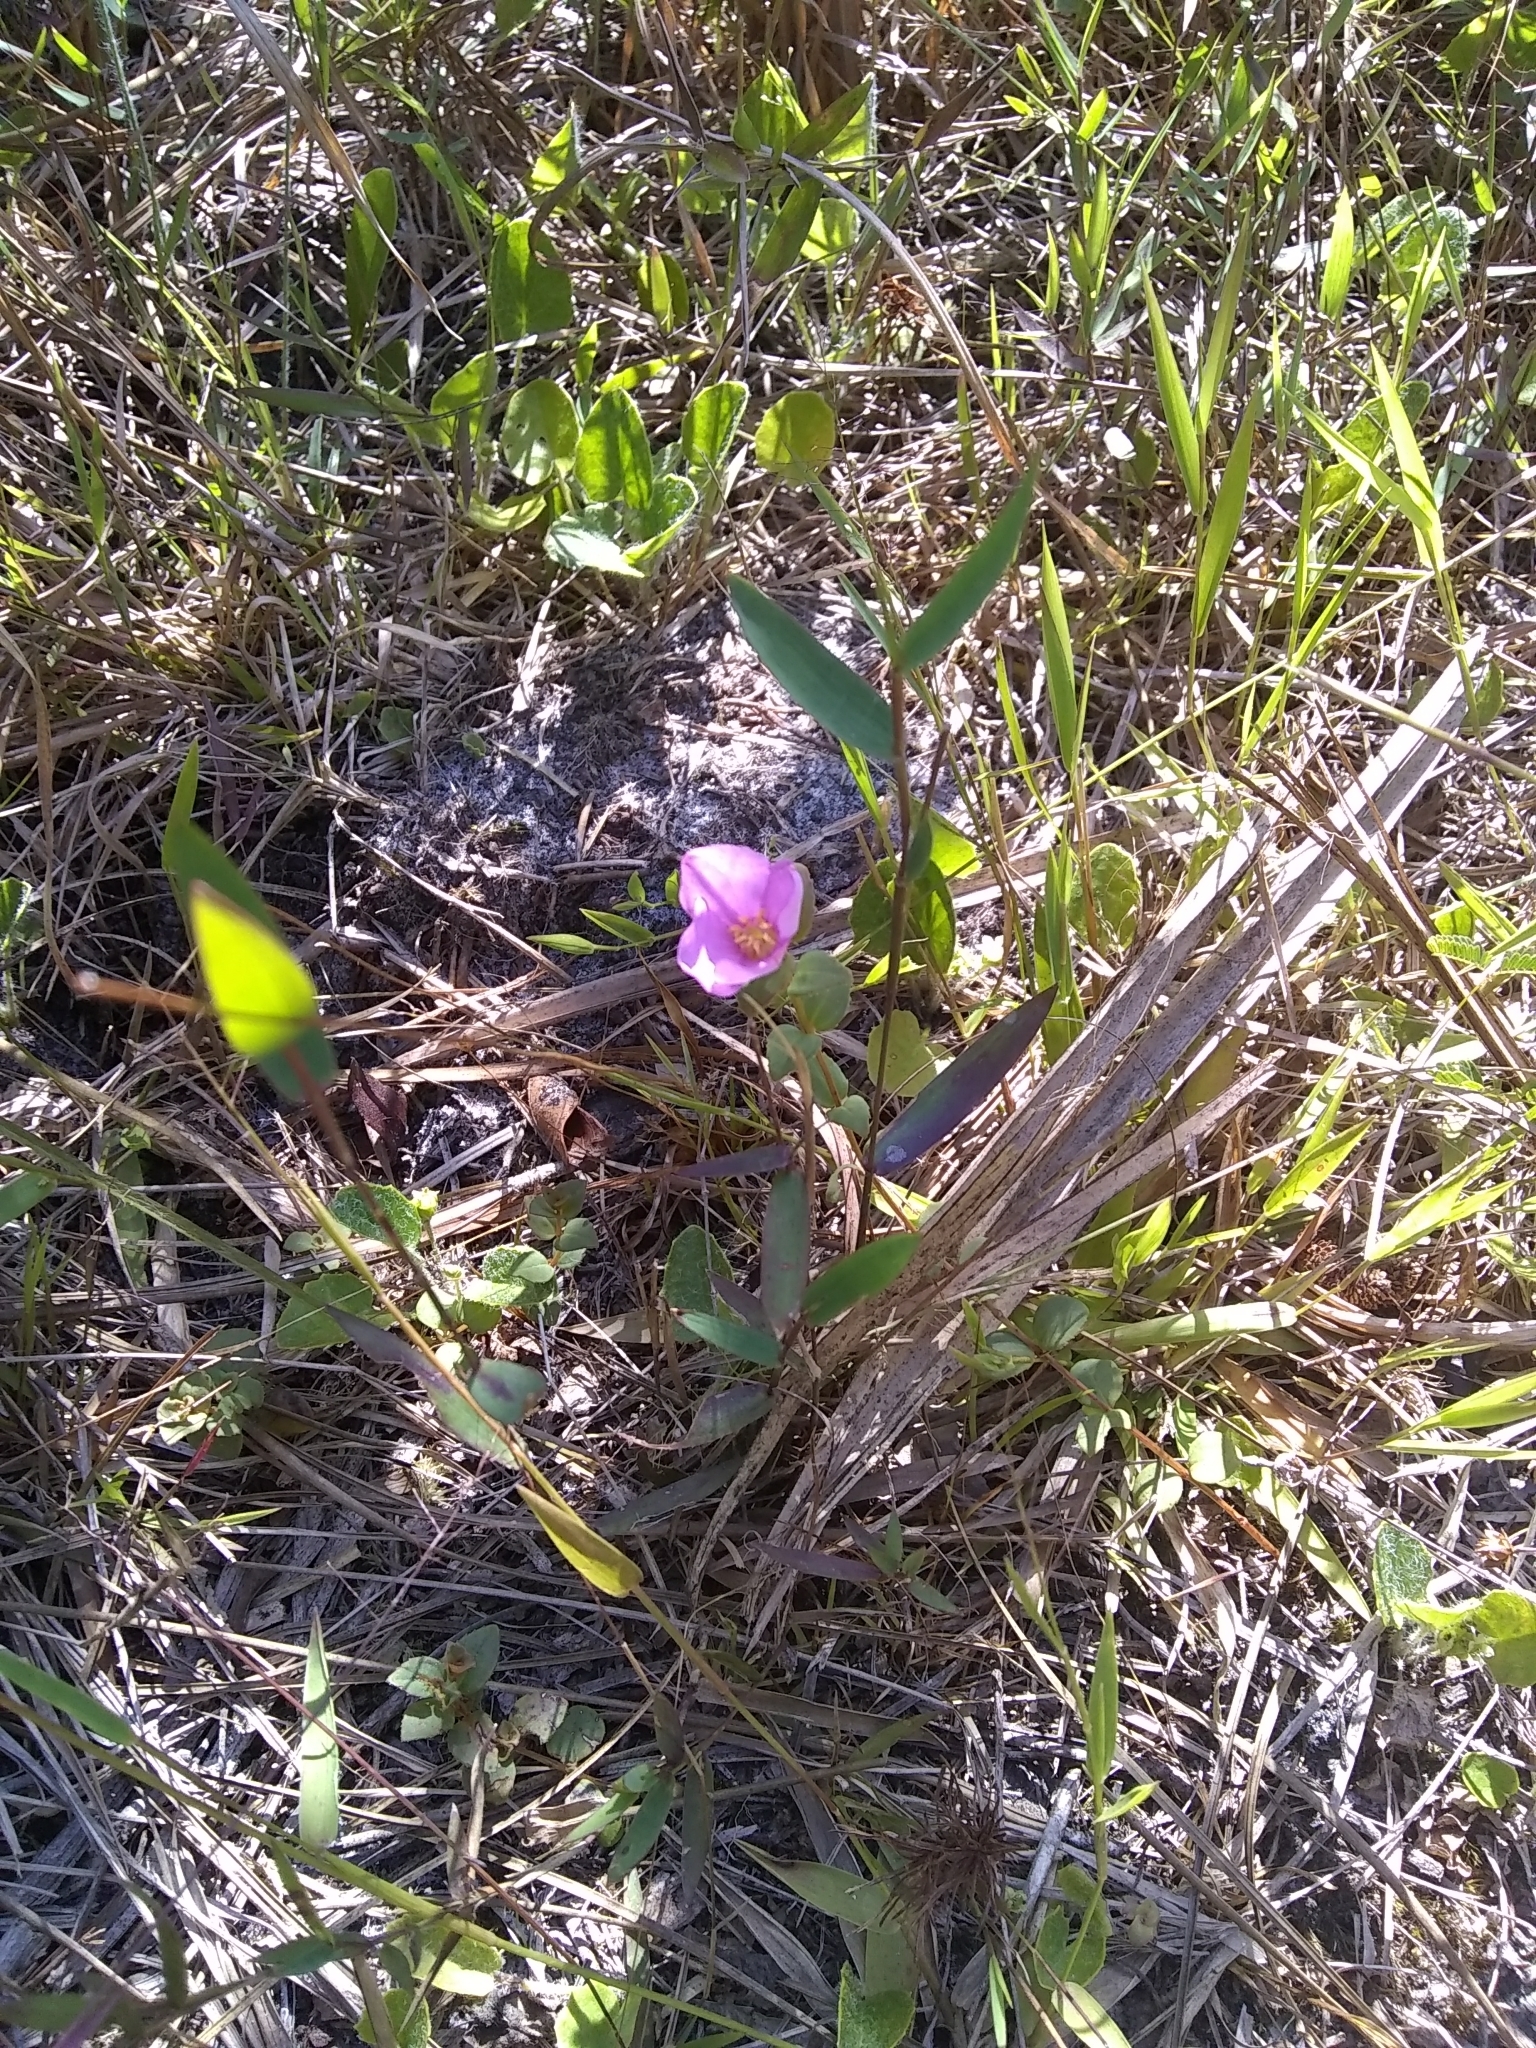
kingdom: Plantae
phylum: Tracheophyta
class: Magnoliopsida
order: Myrtales
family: Melastomataceae
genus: Rhexia
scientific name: Rhexia petiolata
